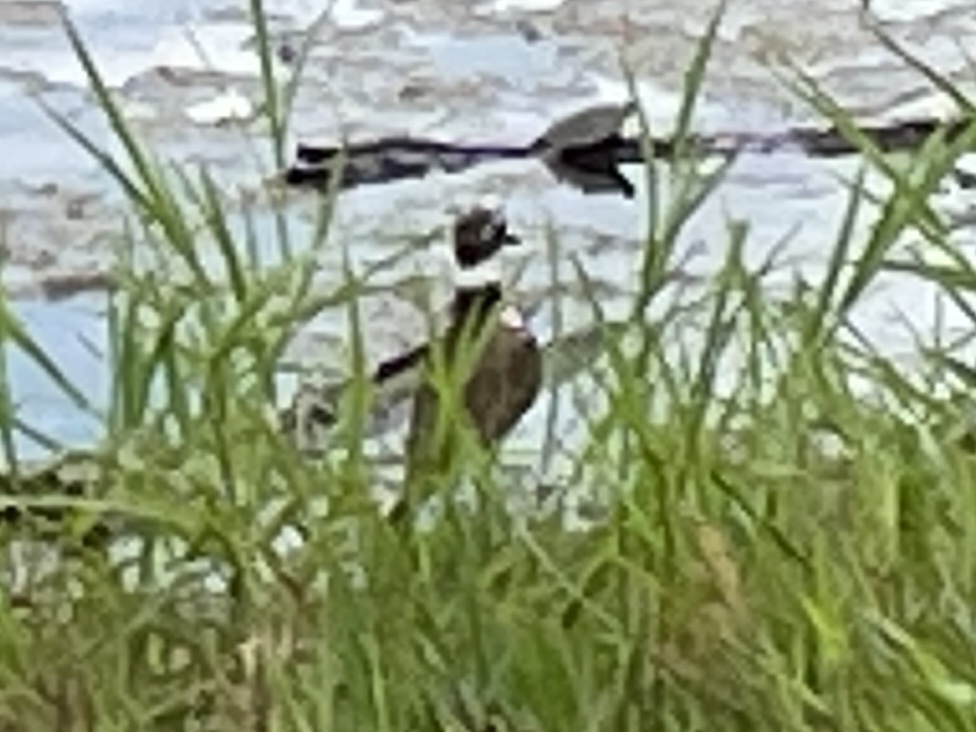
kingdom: Animalia
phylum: Chordata
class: Aves
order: Charadriiformes
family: Charadriidae
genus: Charadrius
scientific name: Charadrius vociferus
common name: Killdeer
